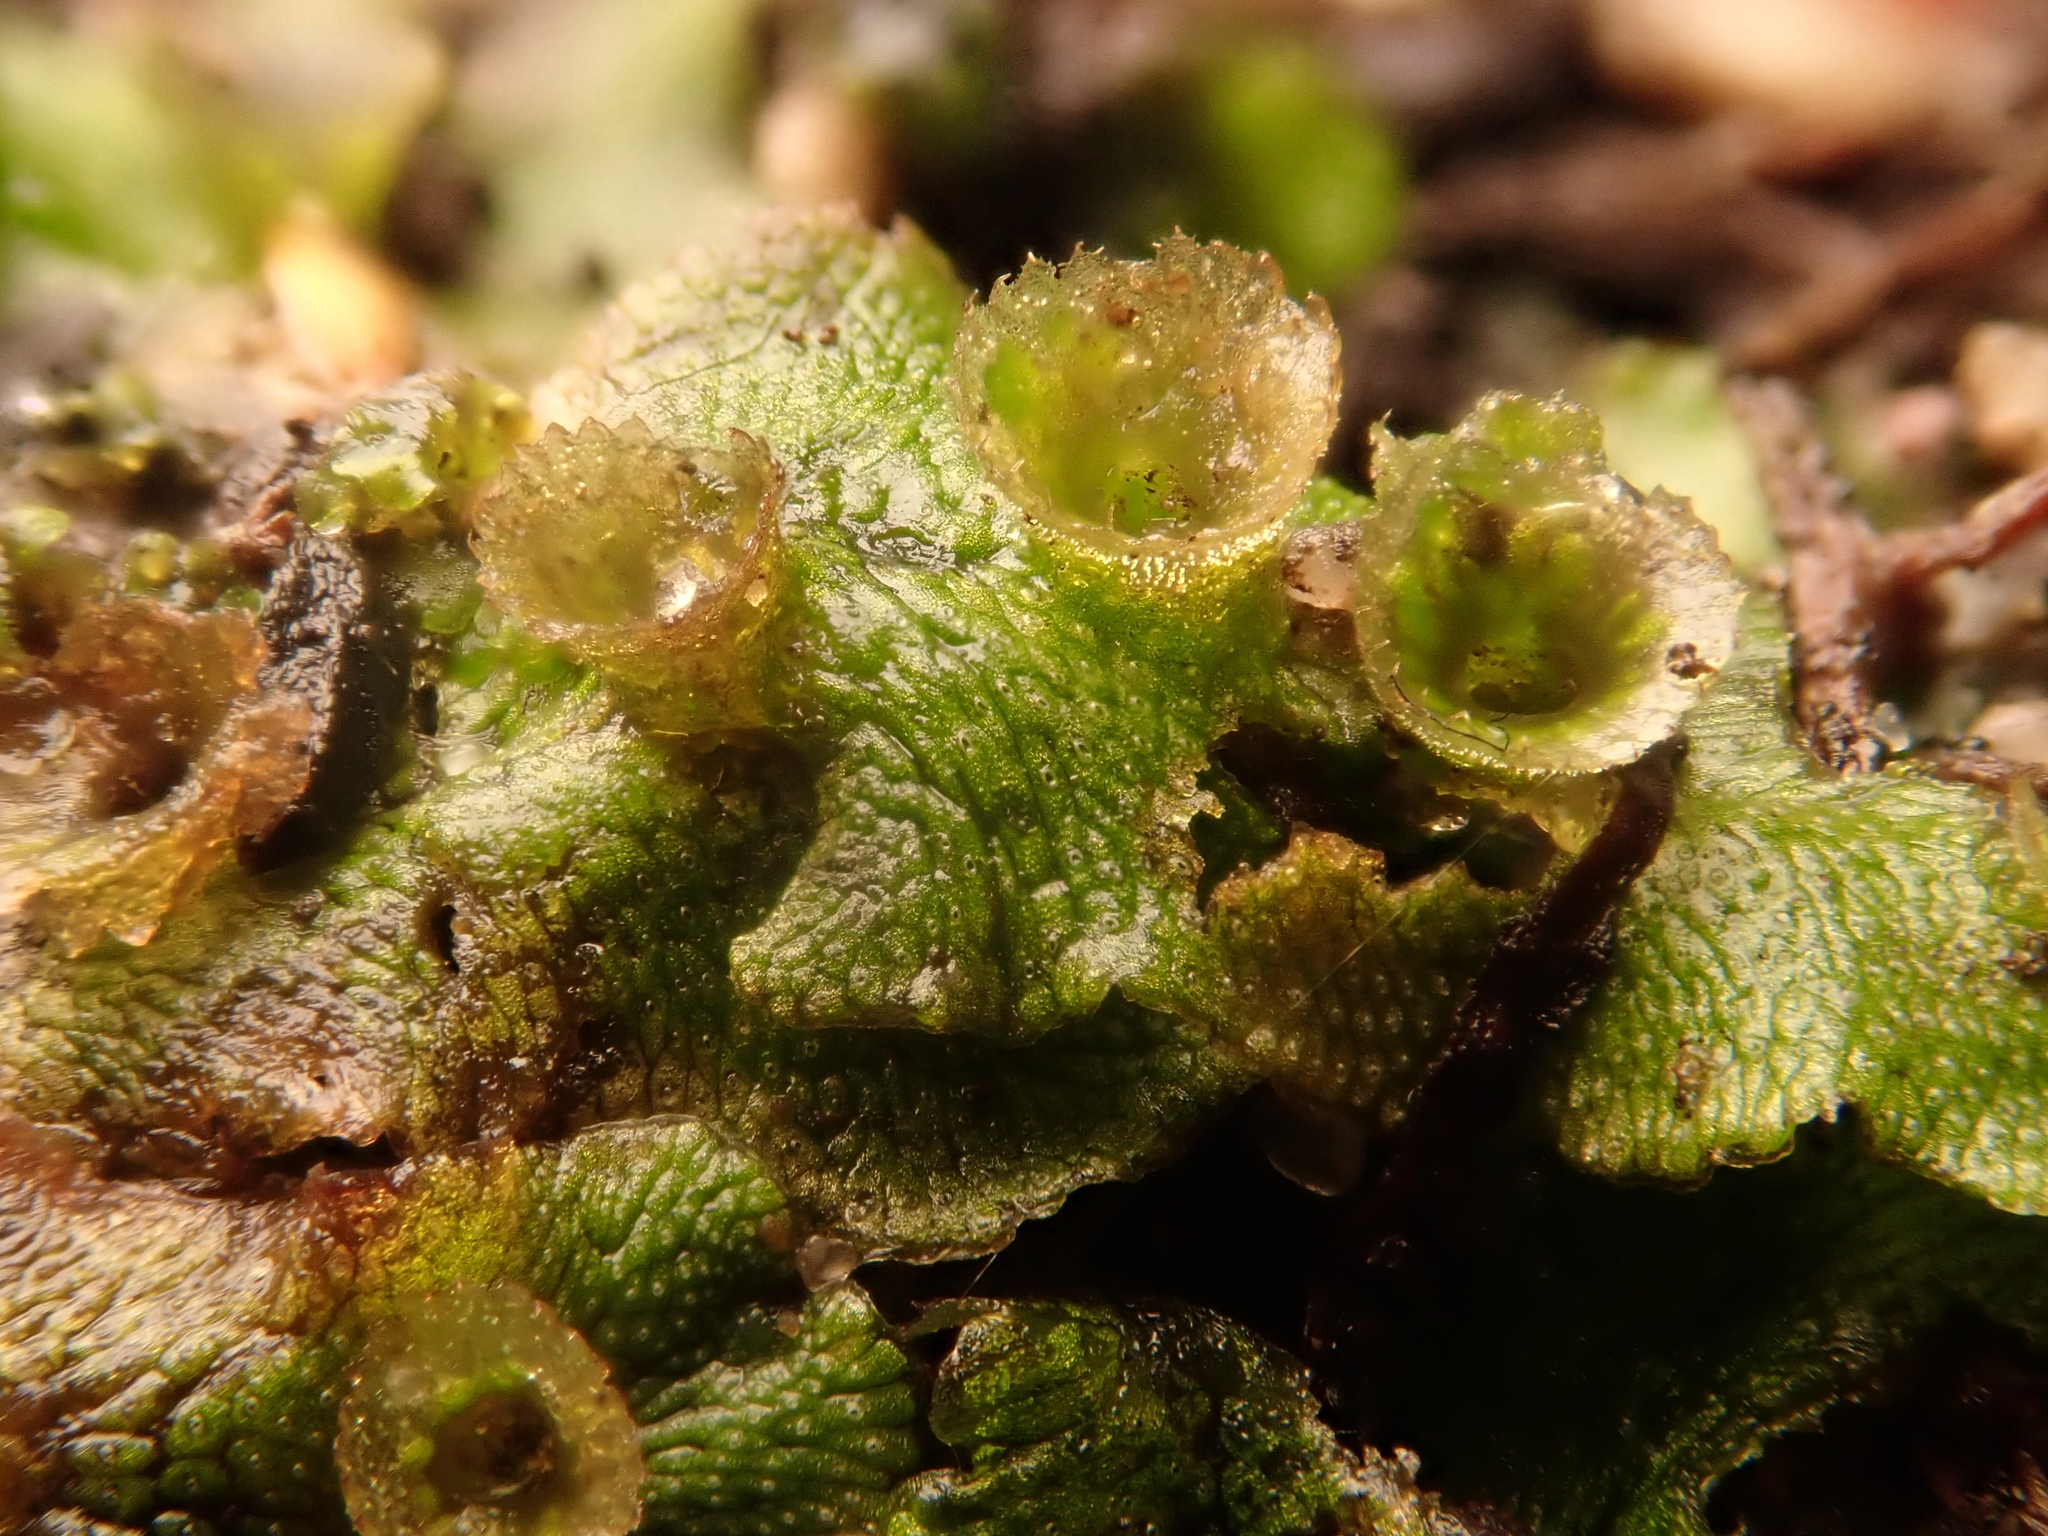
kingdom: Plantae
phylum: Marchantiophyta
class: Marchantiopsida
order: Marchantiales
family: Marchantiaceae
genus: Marchantia
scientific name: Marchantia polymorpha
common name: Common liverwort
